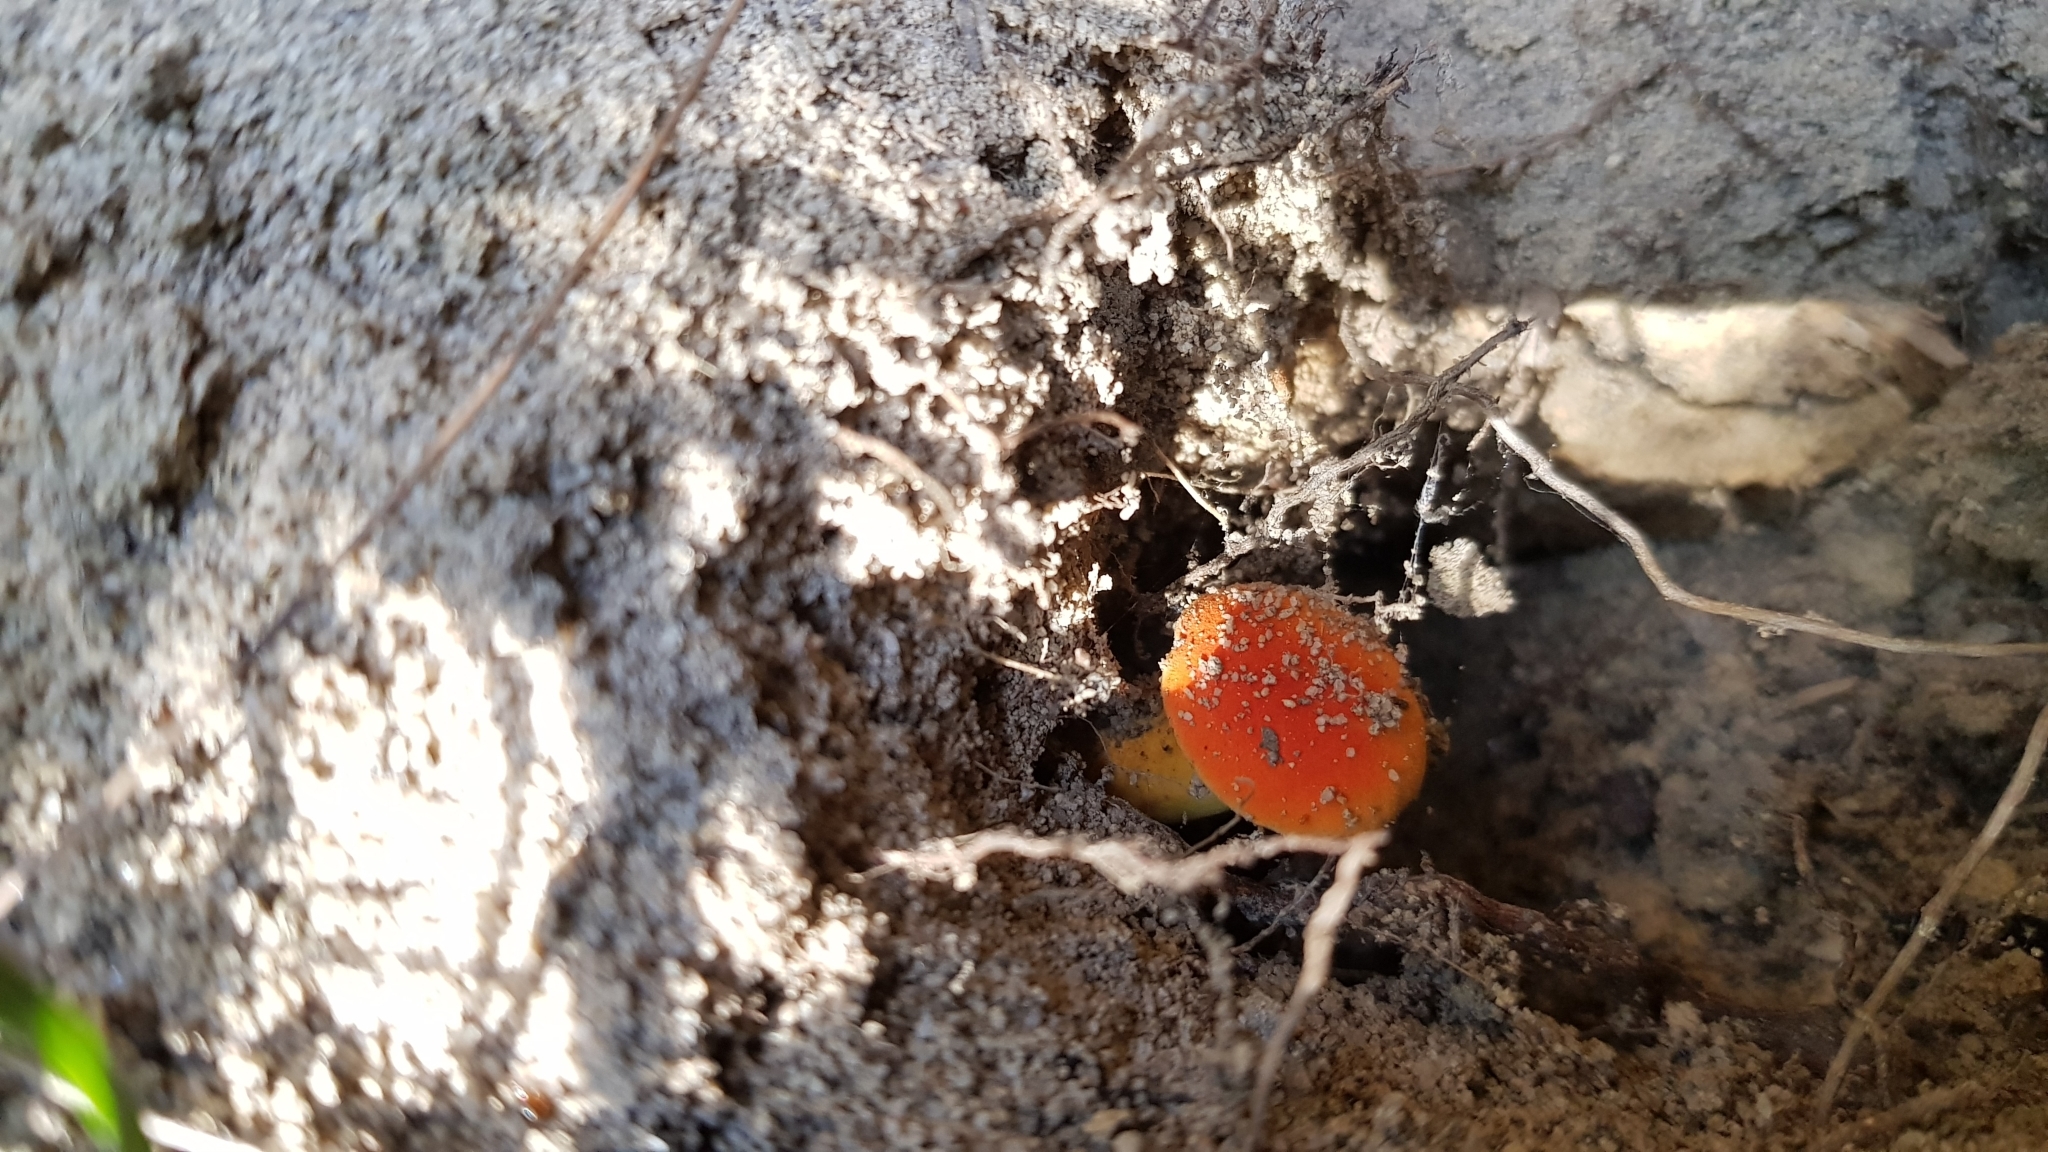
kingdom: Fungi
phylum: Basidiomycota
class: Agaricomycetes
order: Boletales
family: Boletaceae
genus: Tylopilus
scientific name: Tylopilus balloui
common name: Burnt-orange bolete
